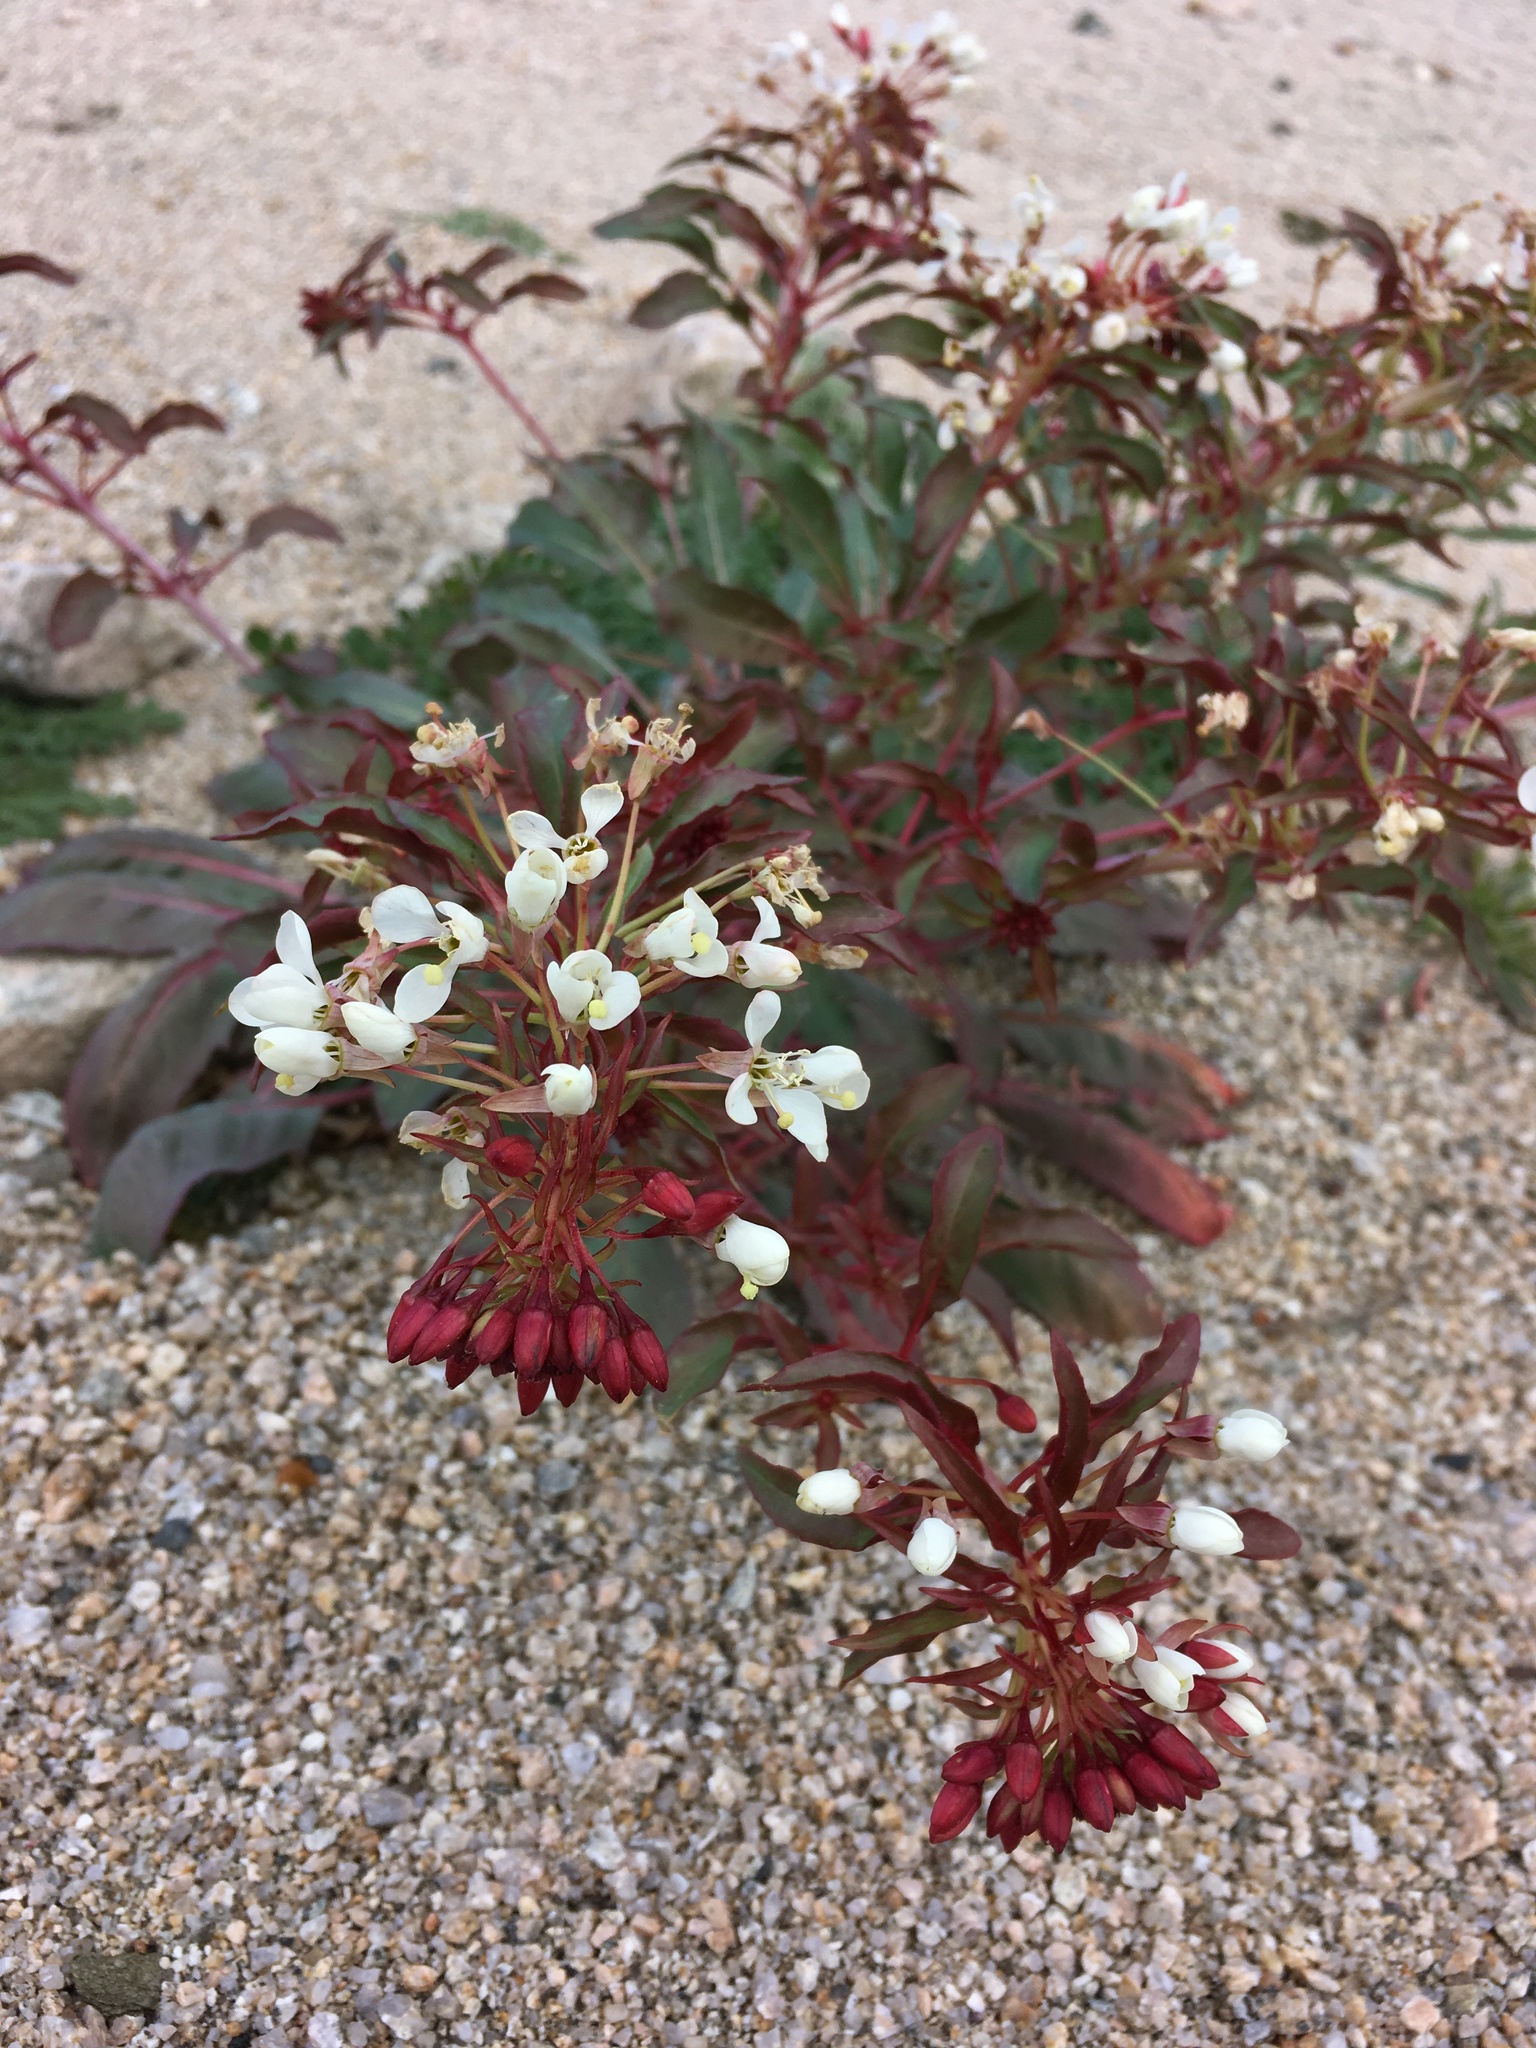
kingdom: Plantae
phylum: Tracheophyta
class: Magnoliopsida
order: Myrtales
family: Onagraceae
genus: Eremothera
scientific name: Eremothera boothii
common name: Booth's evening primrose
